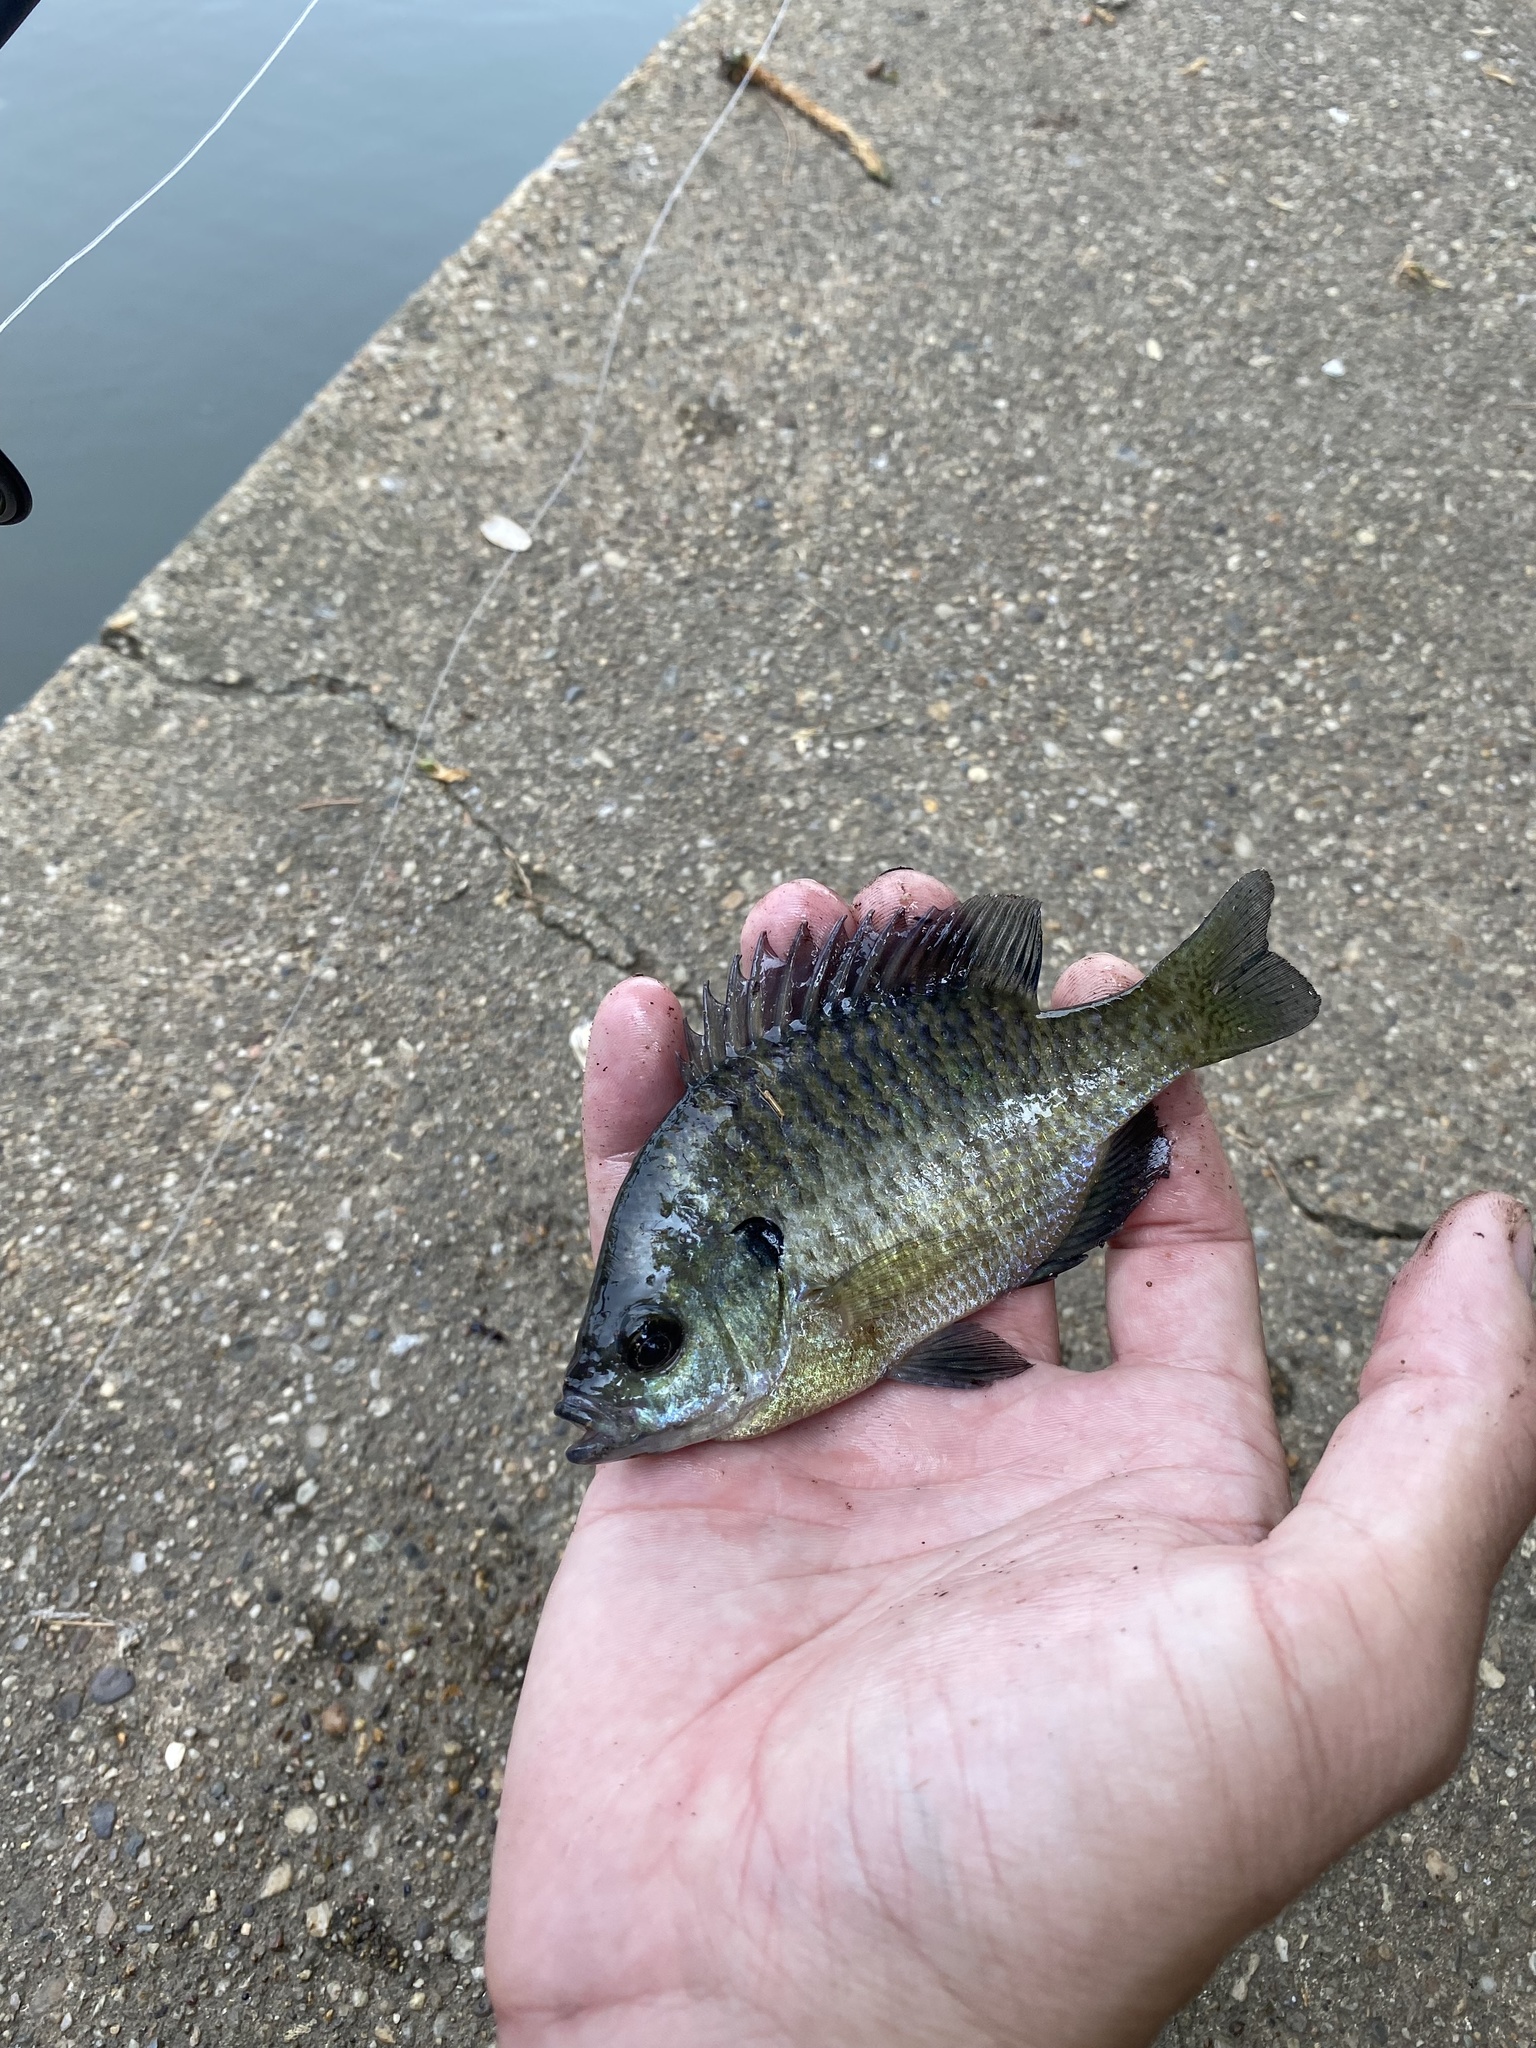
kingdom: Animalia
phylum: Chordata
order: Perciformes
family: Centrarchidae
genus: Lepomis
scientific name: Lepomis macrochirus
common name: Bluegill
